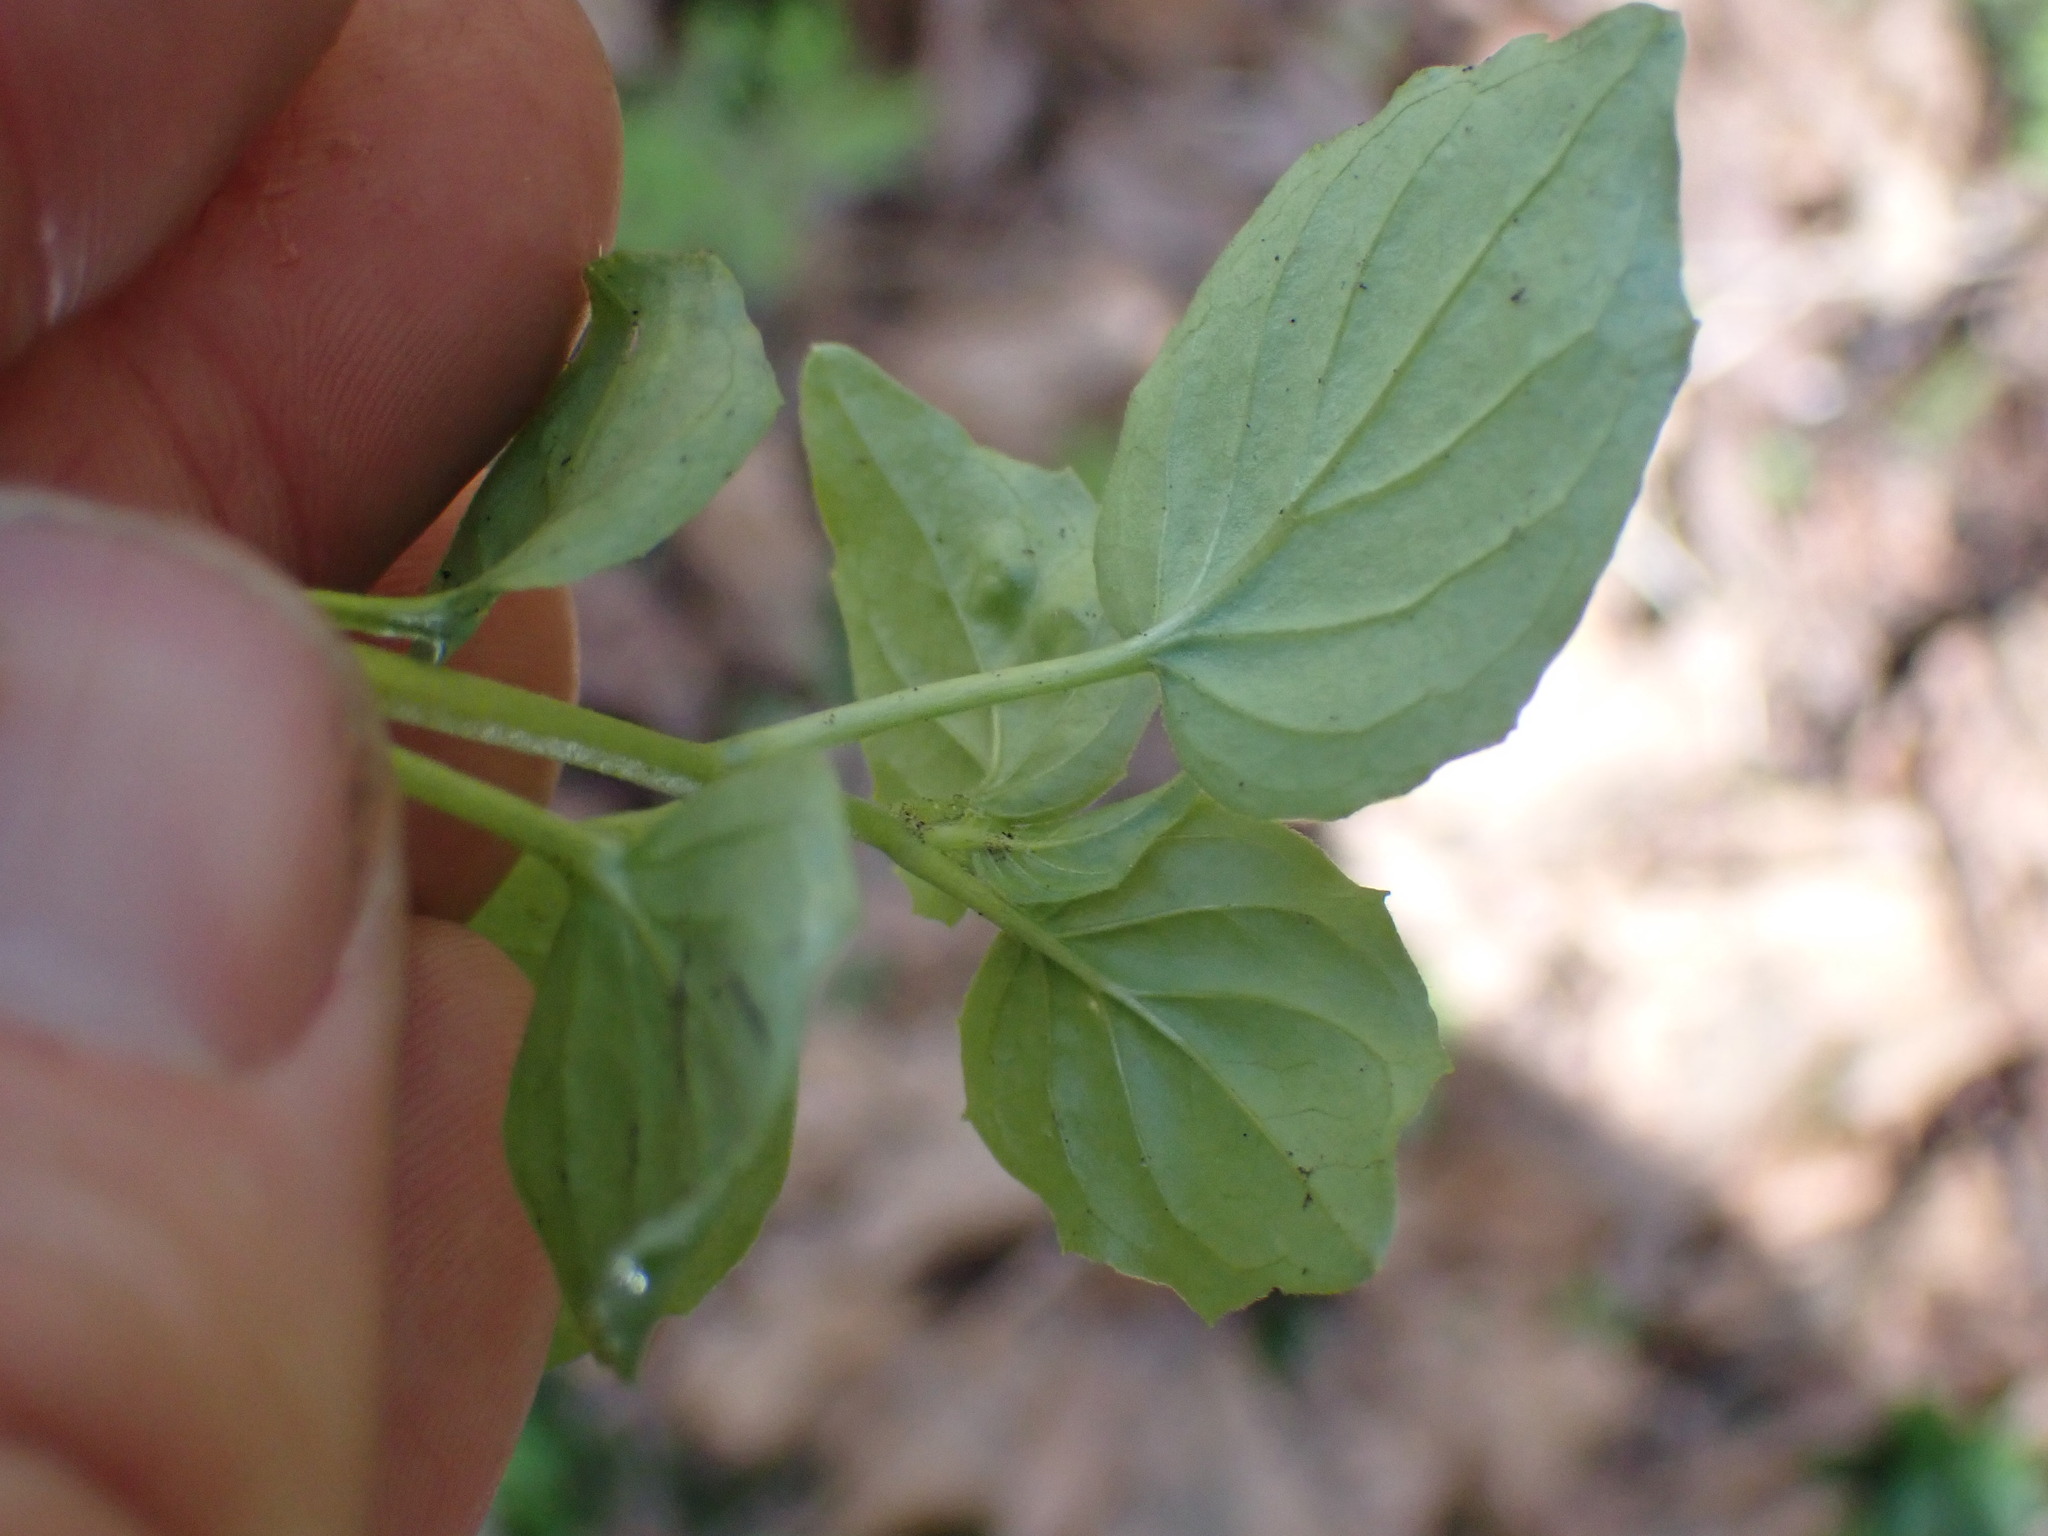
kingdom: Plantae
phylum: Tracheophyta
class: Magnoliopsida
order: Myrtales
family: Onagraceae
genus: Circaea
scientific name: Circaea alpina
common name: Alpine enchanter's-nightshade
